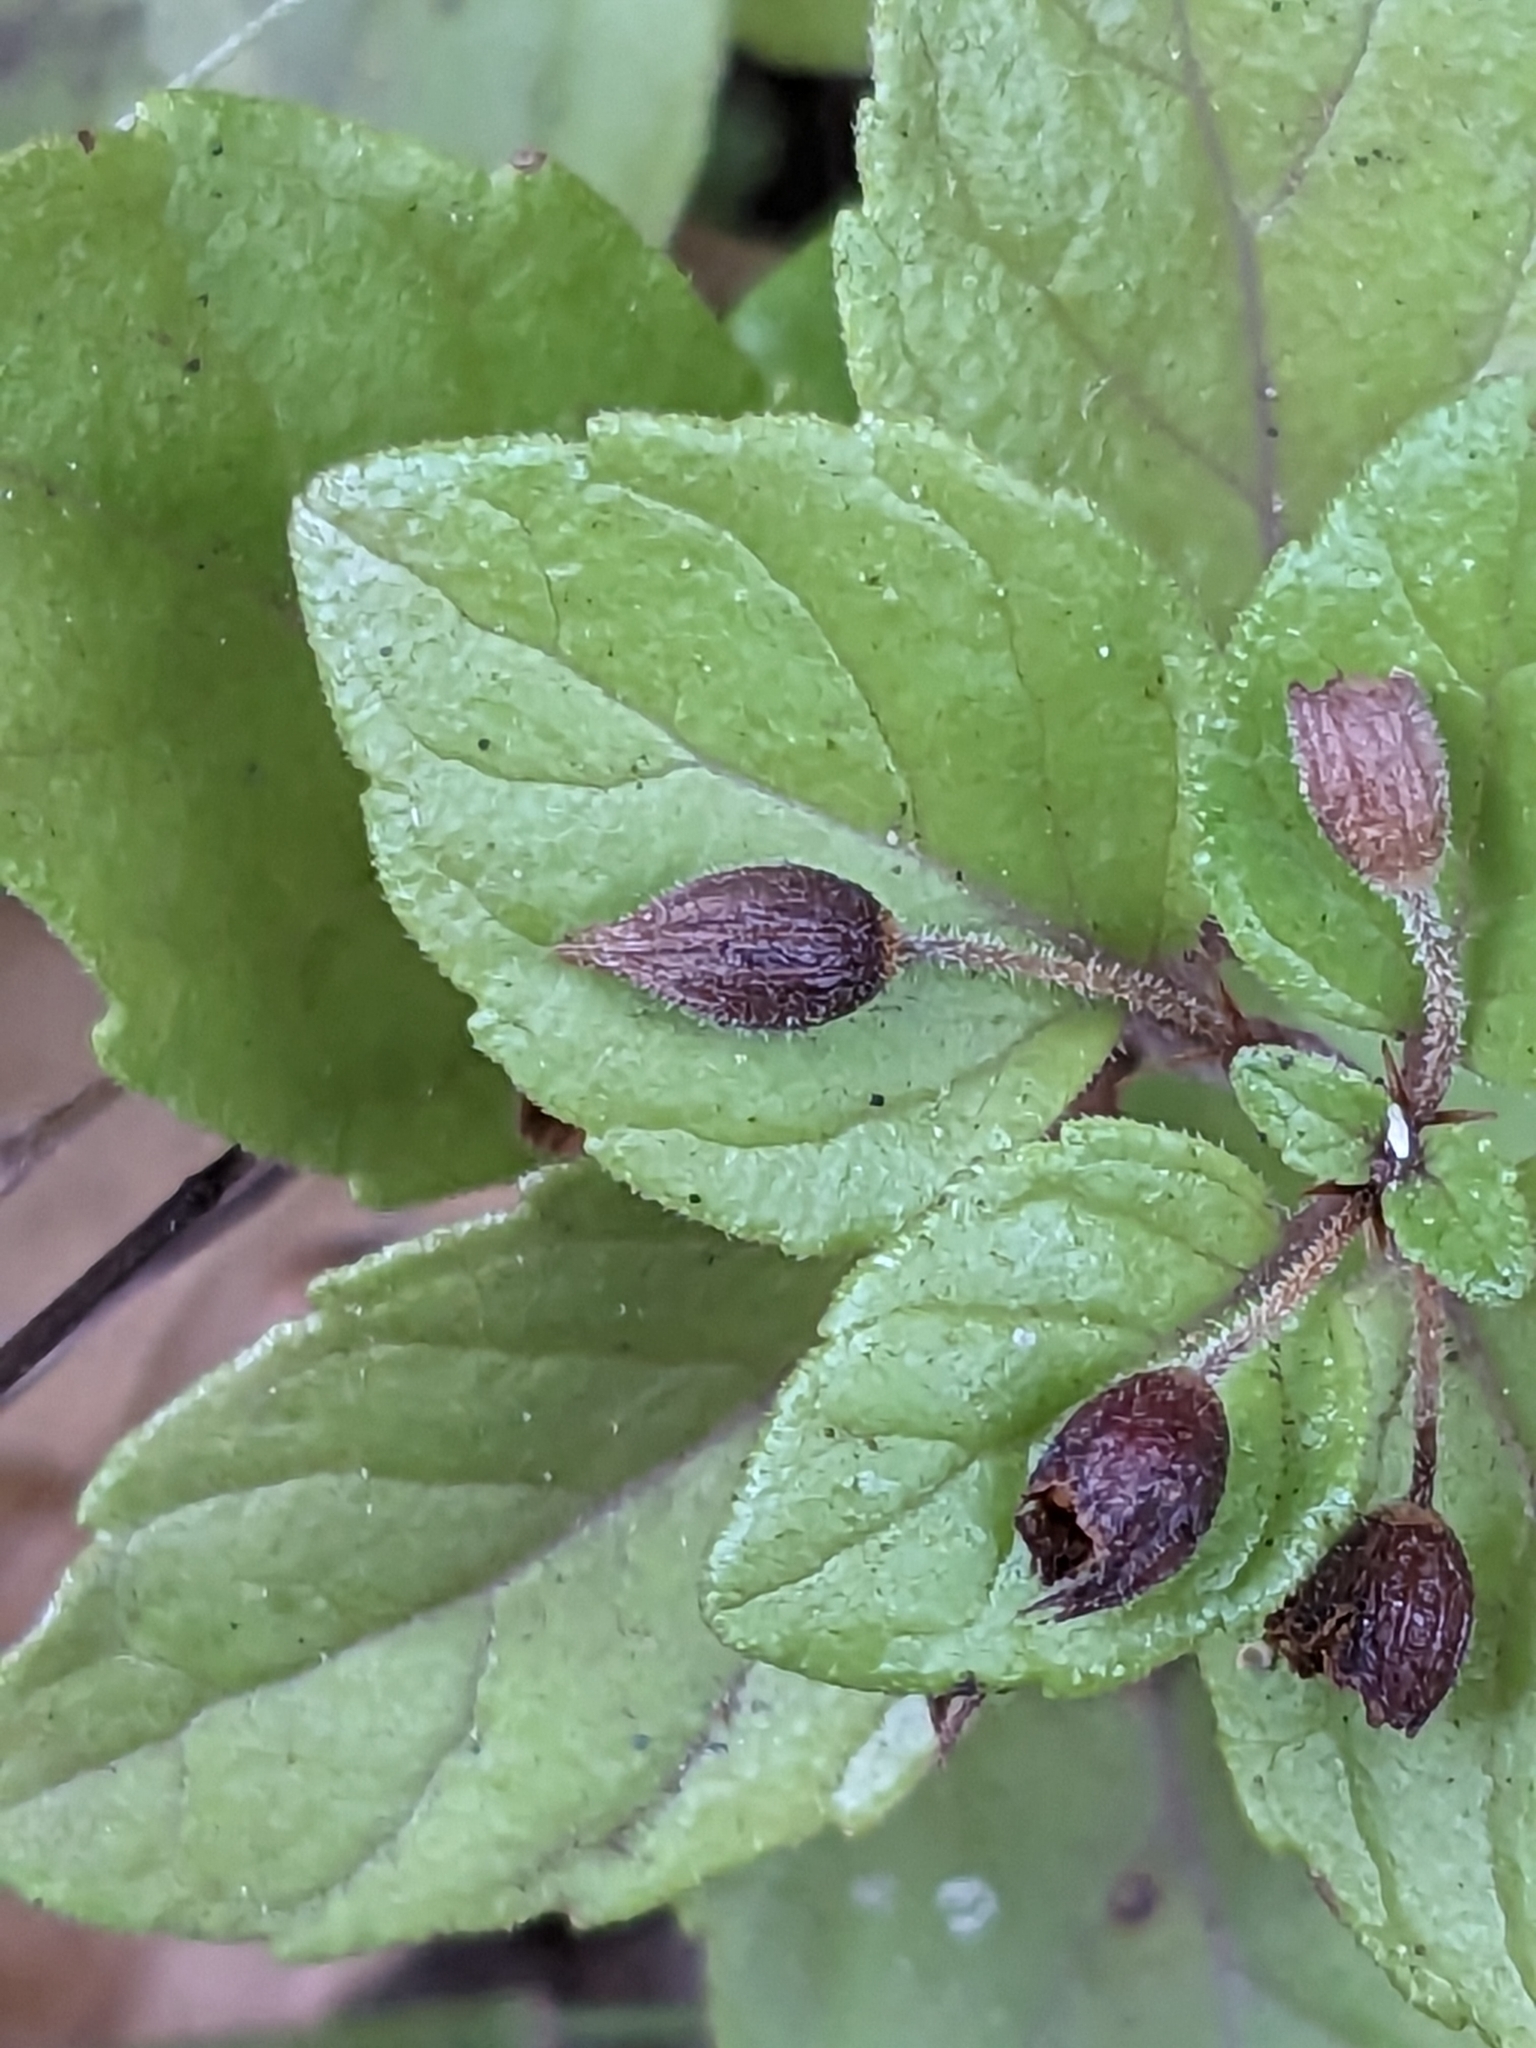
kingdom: Plantae
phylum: Tracheophyta
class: Magnoliopsida
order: Lamiales
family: Lamiaceae
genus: Micromeria
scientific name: Micromeria douglasii
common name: Yerba buena
